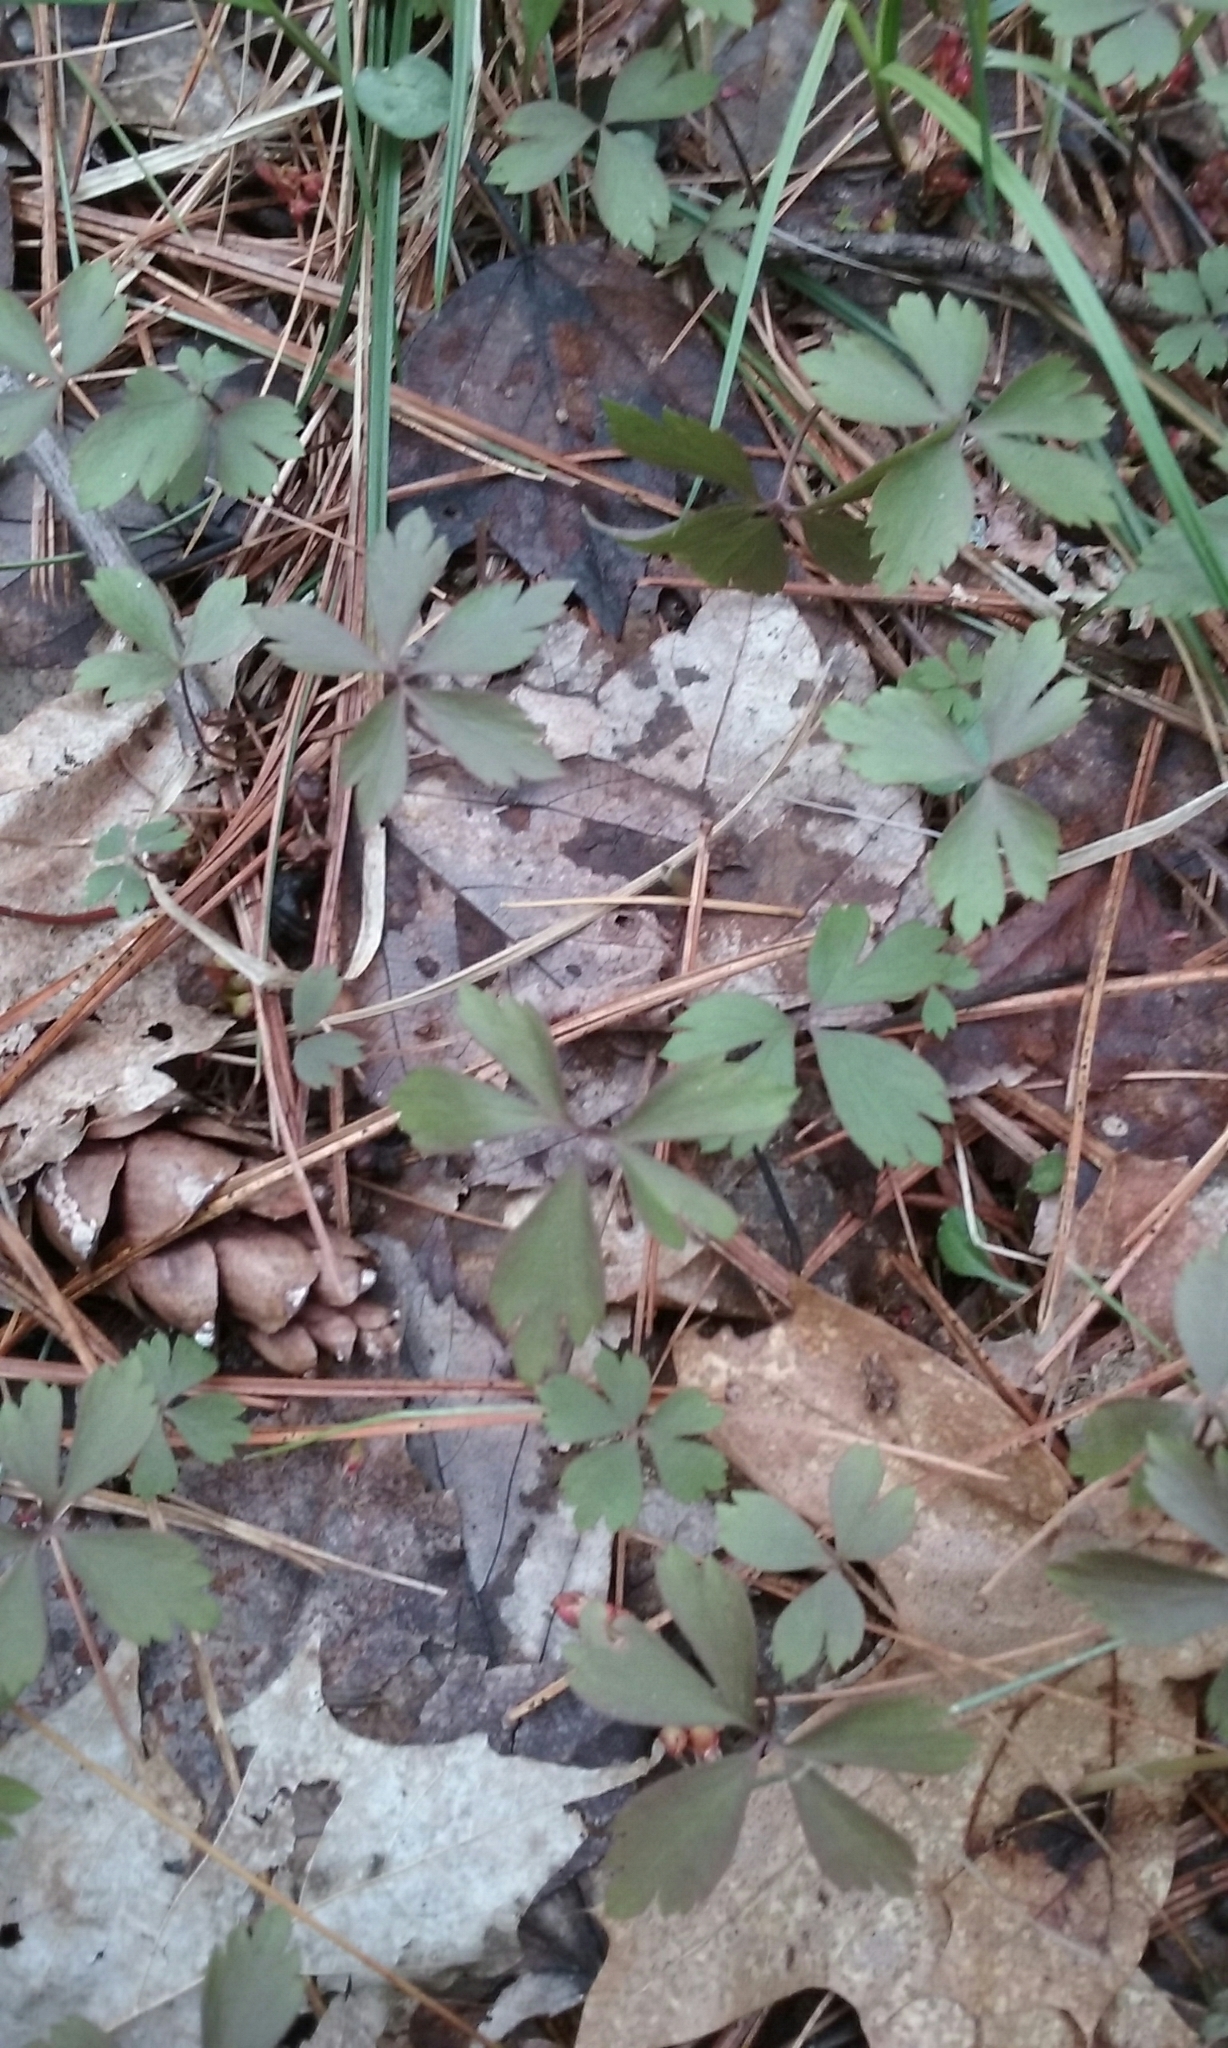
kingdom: Plantae
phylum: Tracheophyta
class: Magnoliopsida
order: Ranunculales
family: Ranunculaceae
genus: Anemone
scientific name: Anemone quinquefolia
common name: Wood anemone
